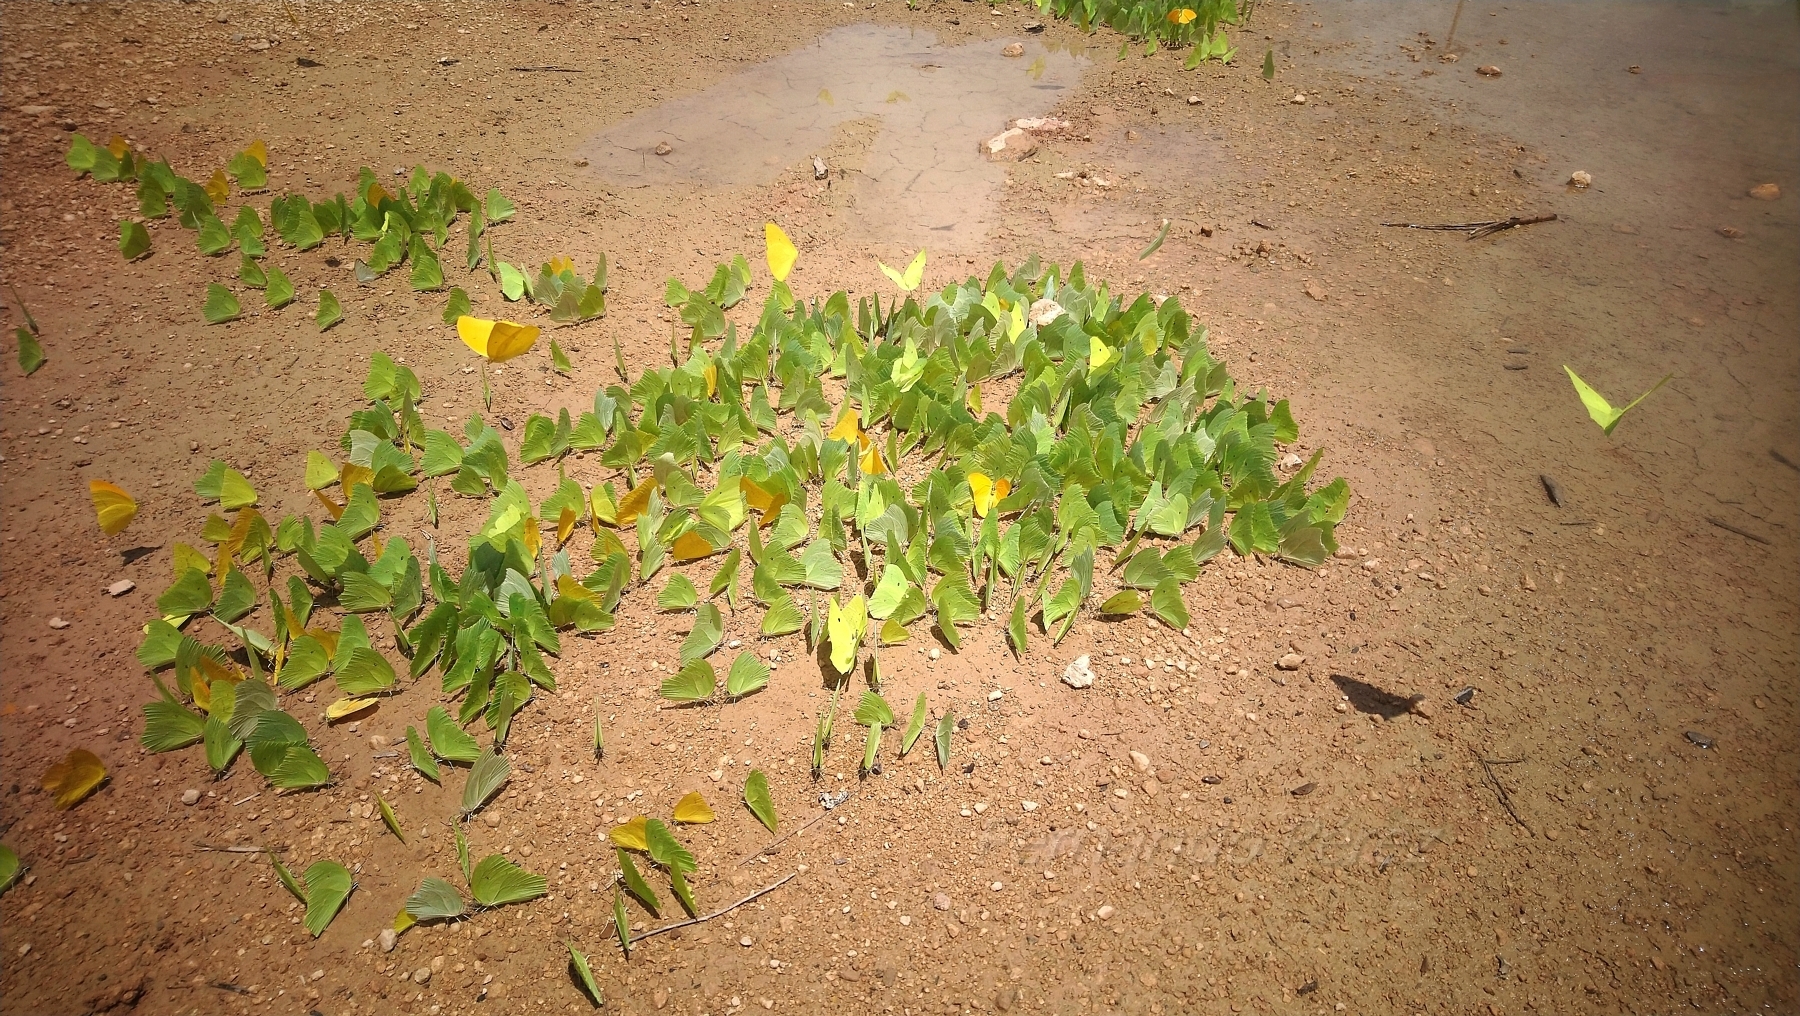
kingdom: Animalia
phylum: Arthropoda
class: Insecta
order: Lepidoptera
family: Pieridae
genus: Anteos
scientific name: Anteos maerula
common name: Angled sulphur
